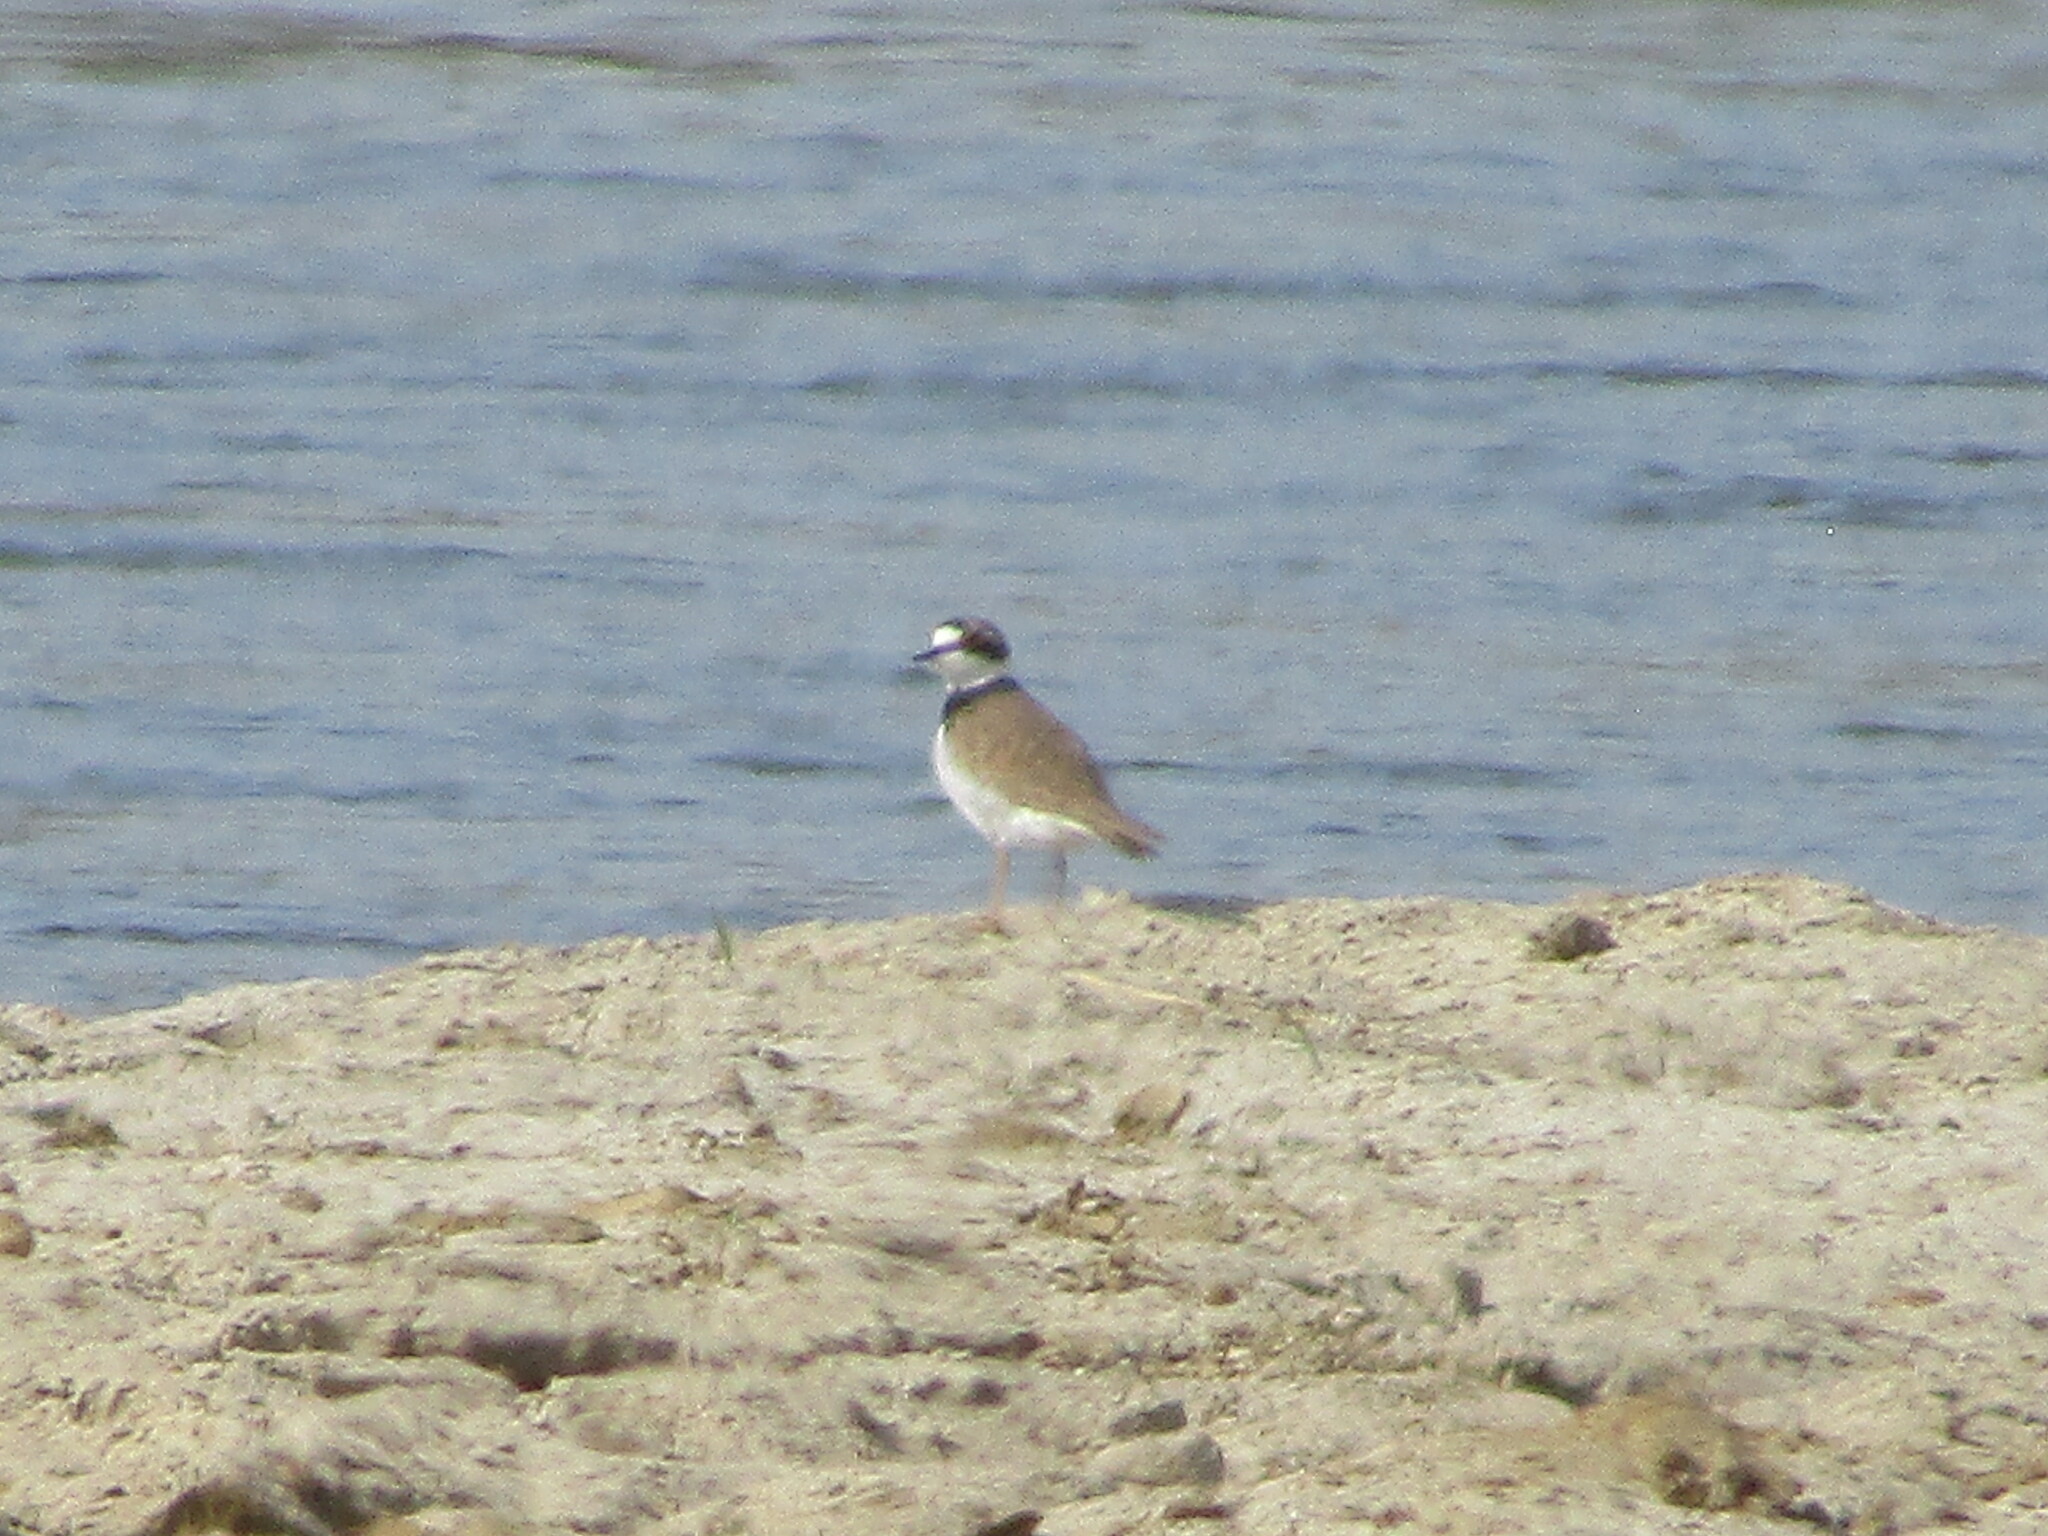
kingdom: Animalia
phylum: Chordata
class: Aves
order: Charadriiformes
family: Charadriidae
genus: Charadrius
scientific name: Charadrius dubius
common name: Little ringed plover
